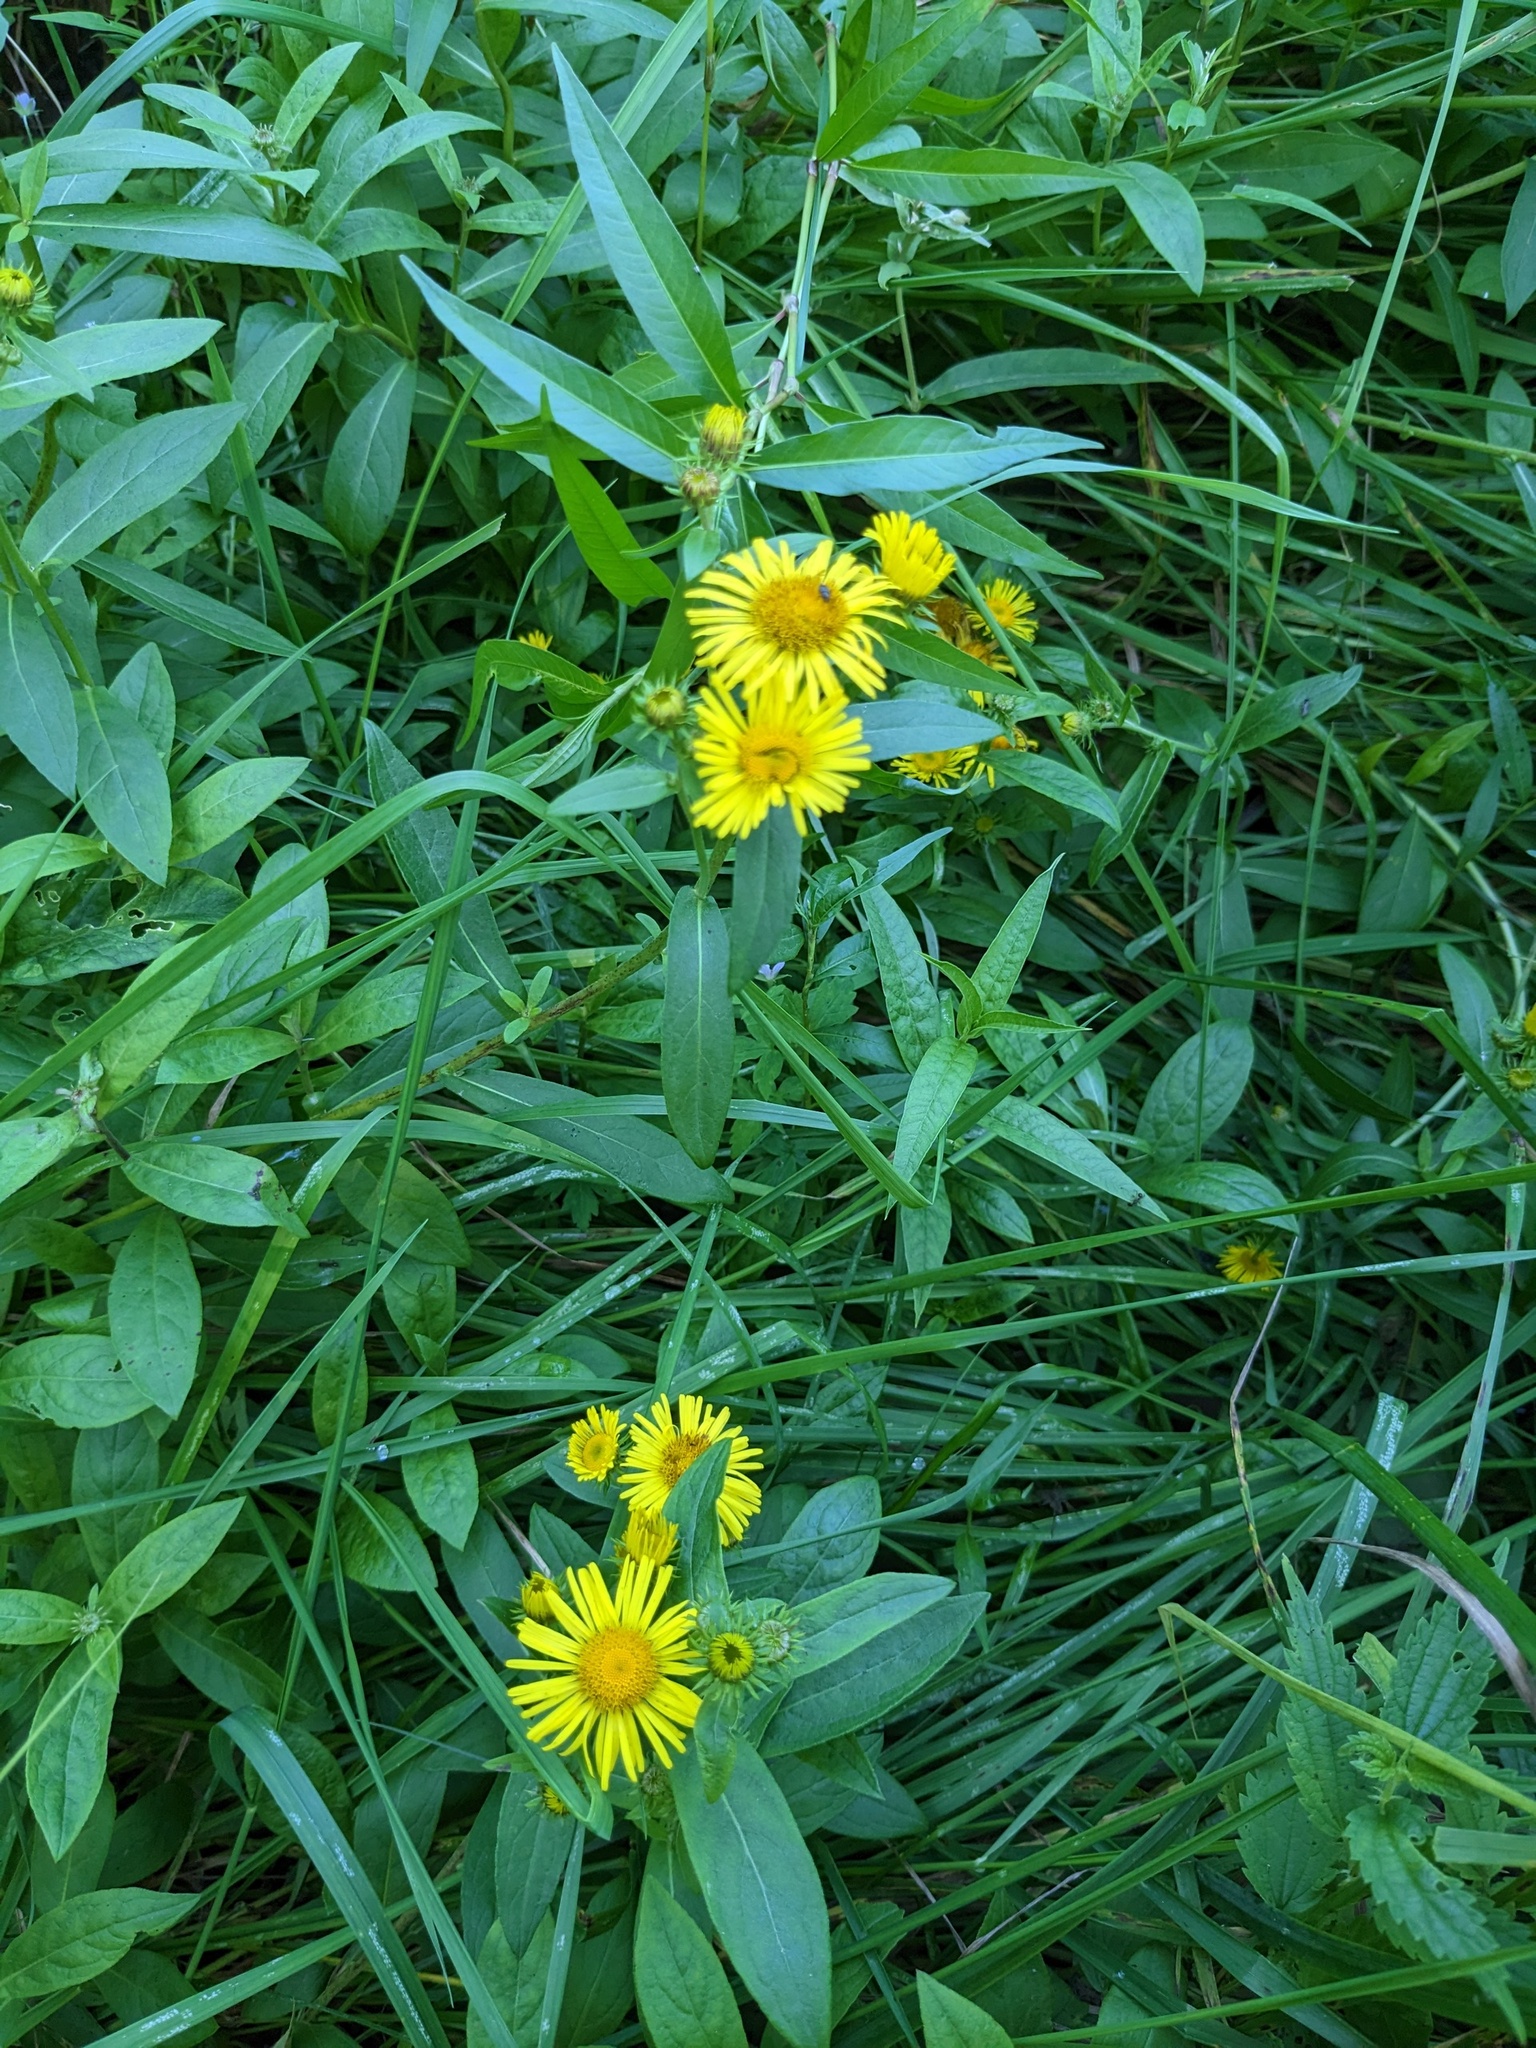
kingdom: Plantae
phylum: Tracheophyta
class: Magnoliopsida
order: Asterales
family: Asteraceae
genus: Inula
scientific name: Inula japonica
